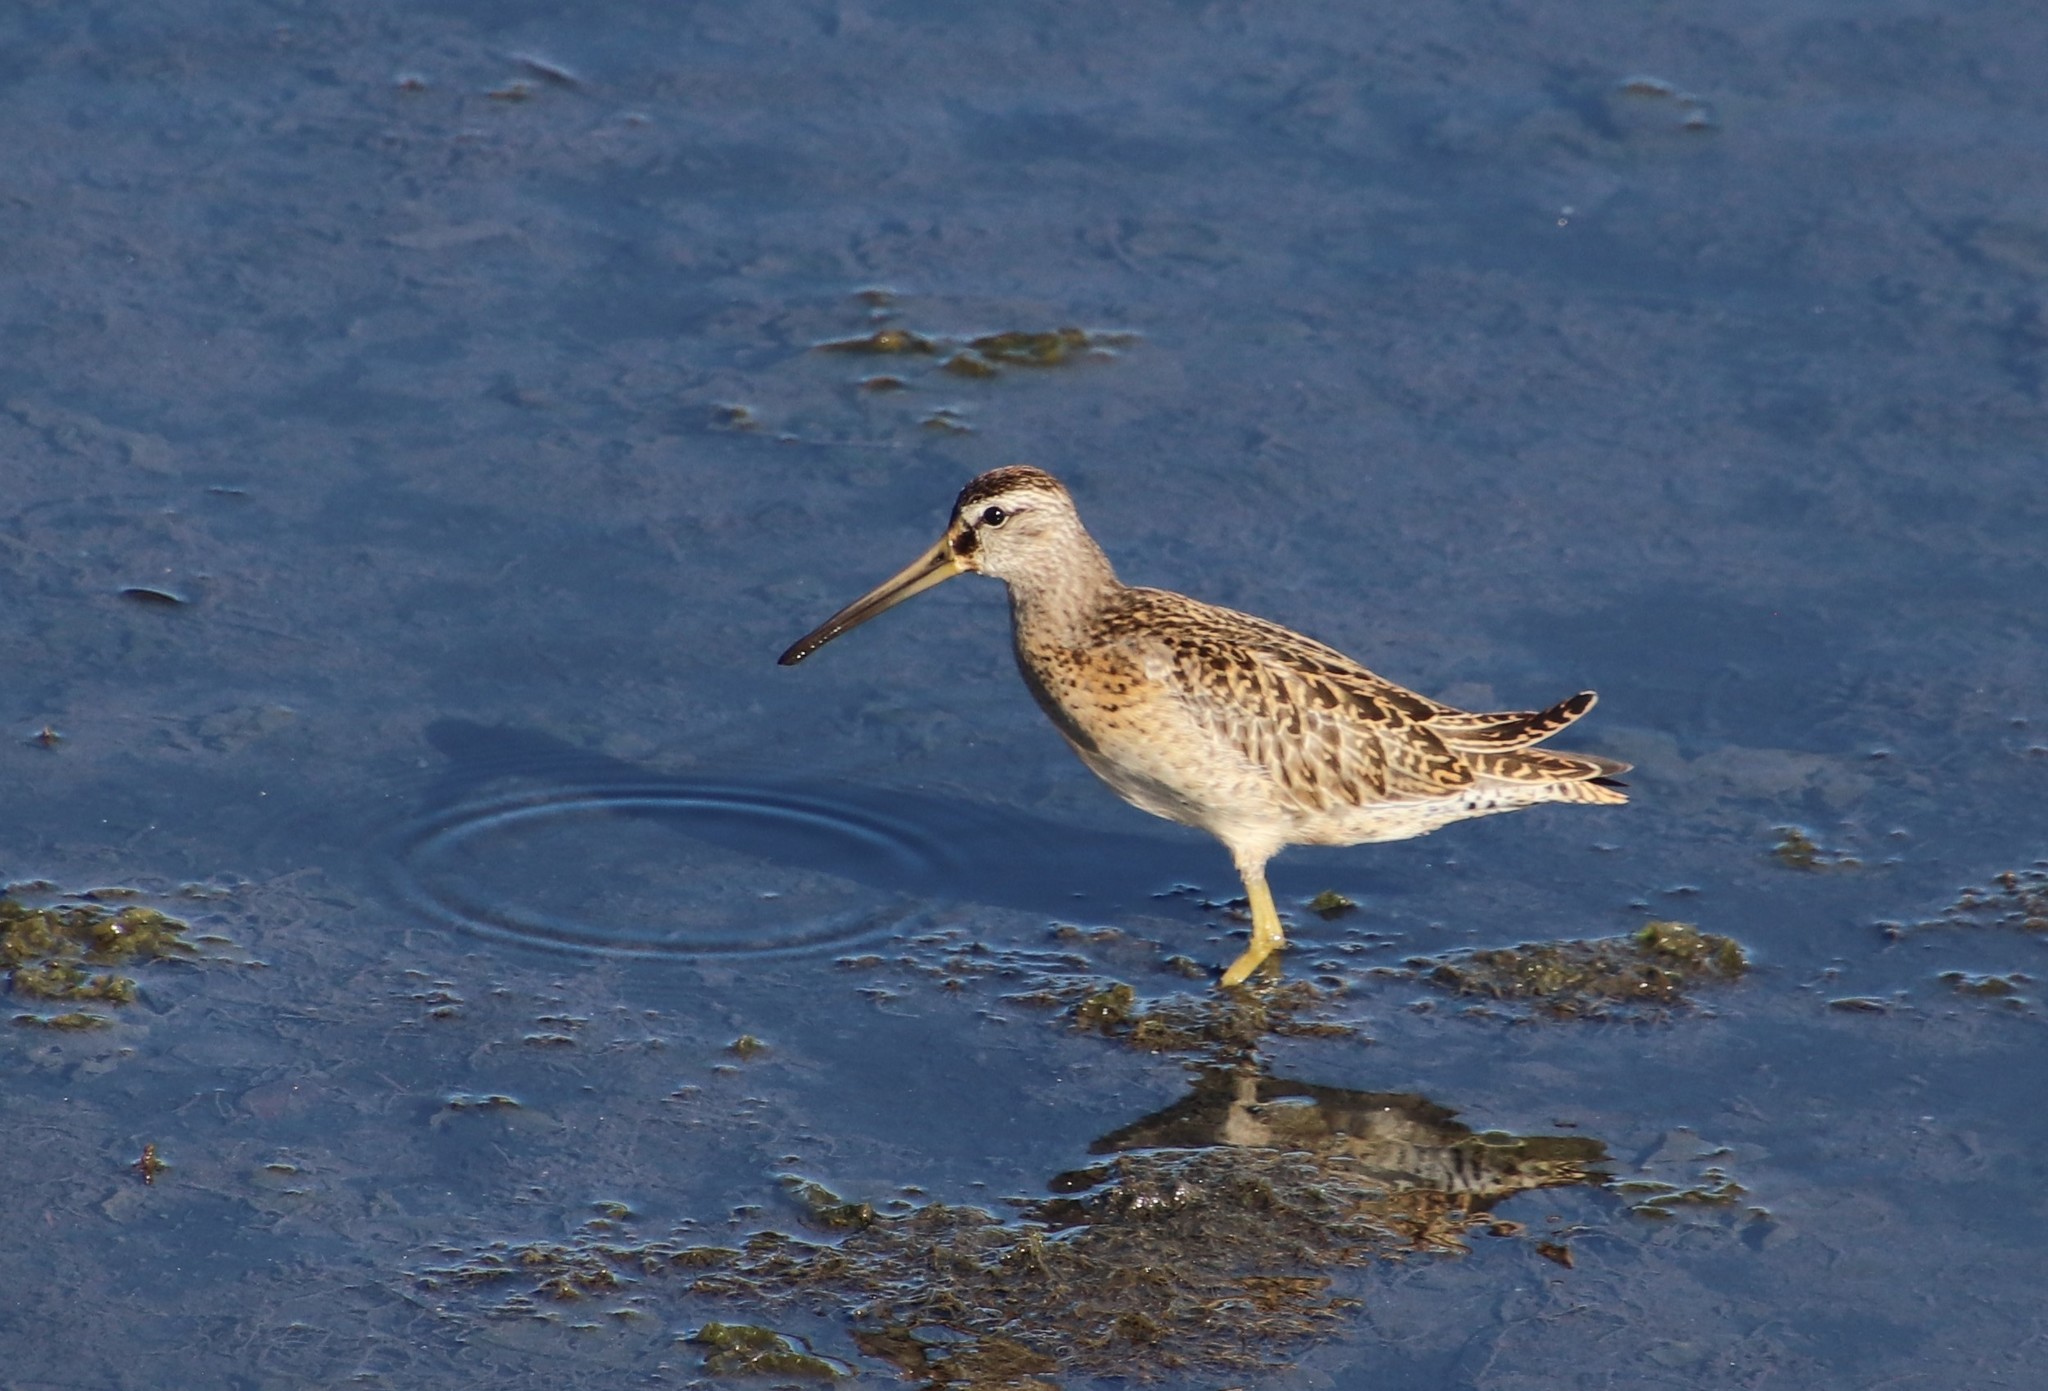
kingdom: Animalia
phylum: Chordata
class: Aves
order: Charadriiformes
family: Scolopacidae
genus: Limnodromus
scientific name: Limnodromus griseus
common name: Short-billed dowitcher
